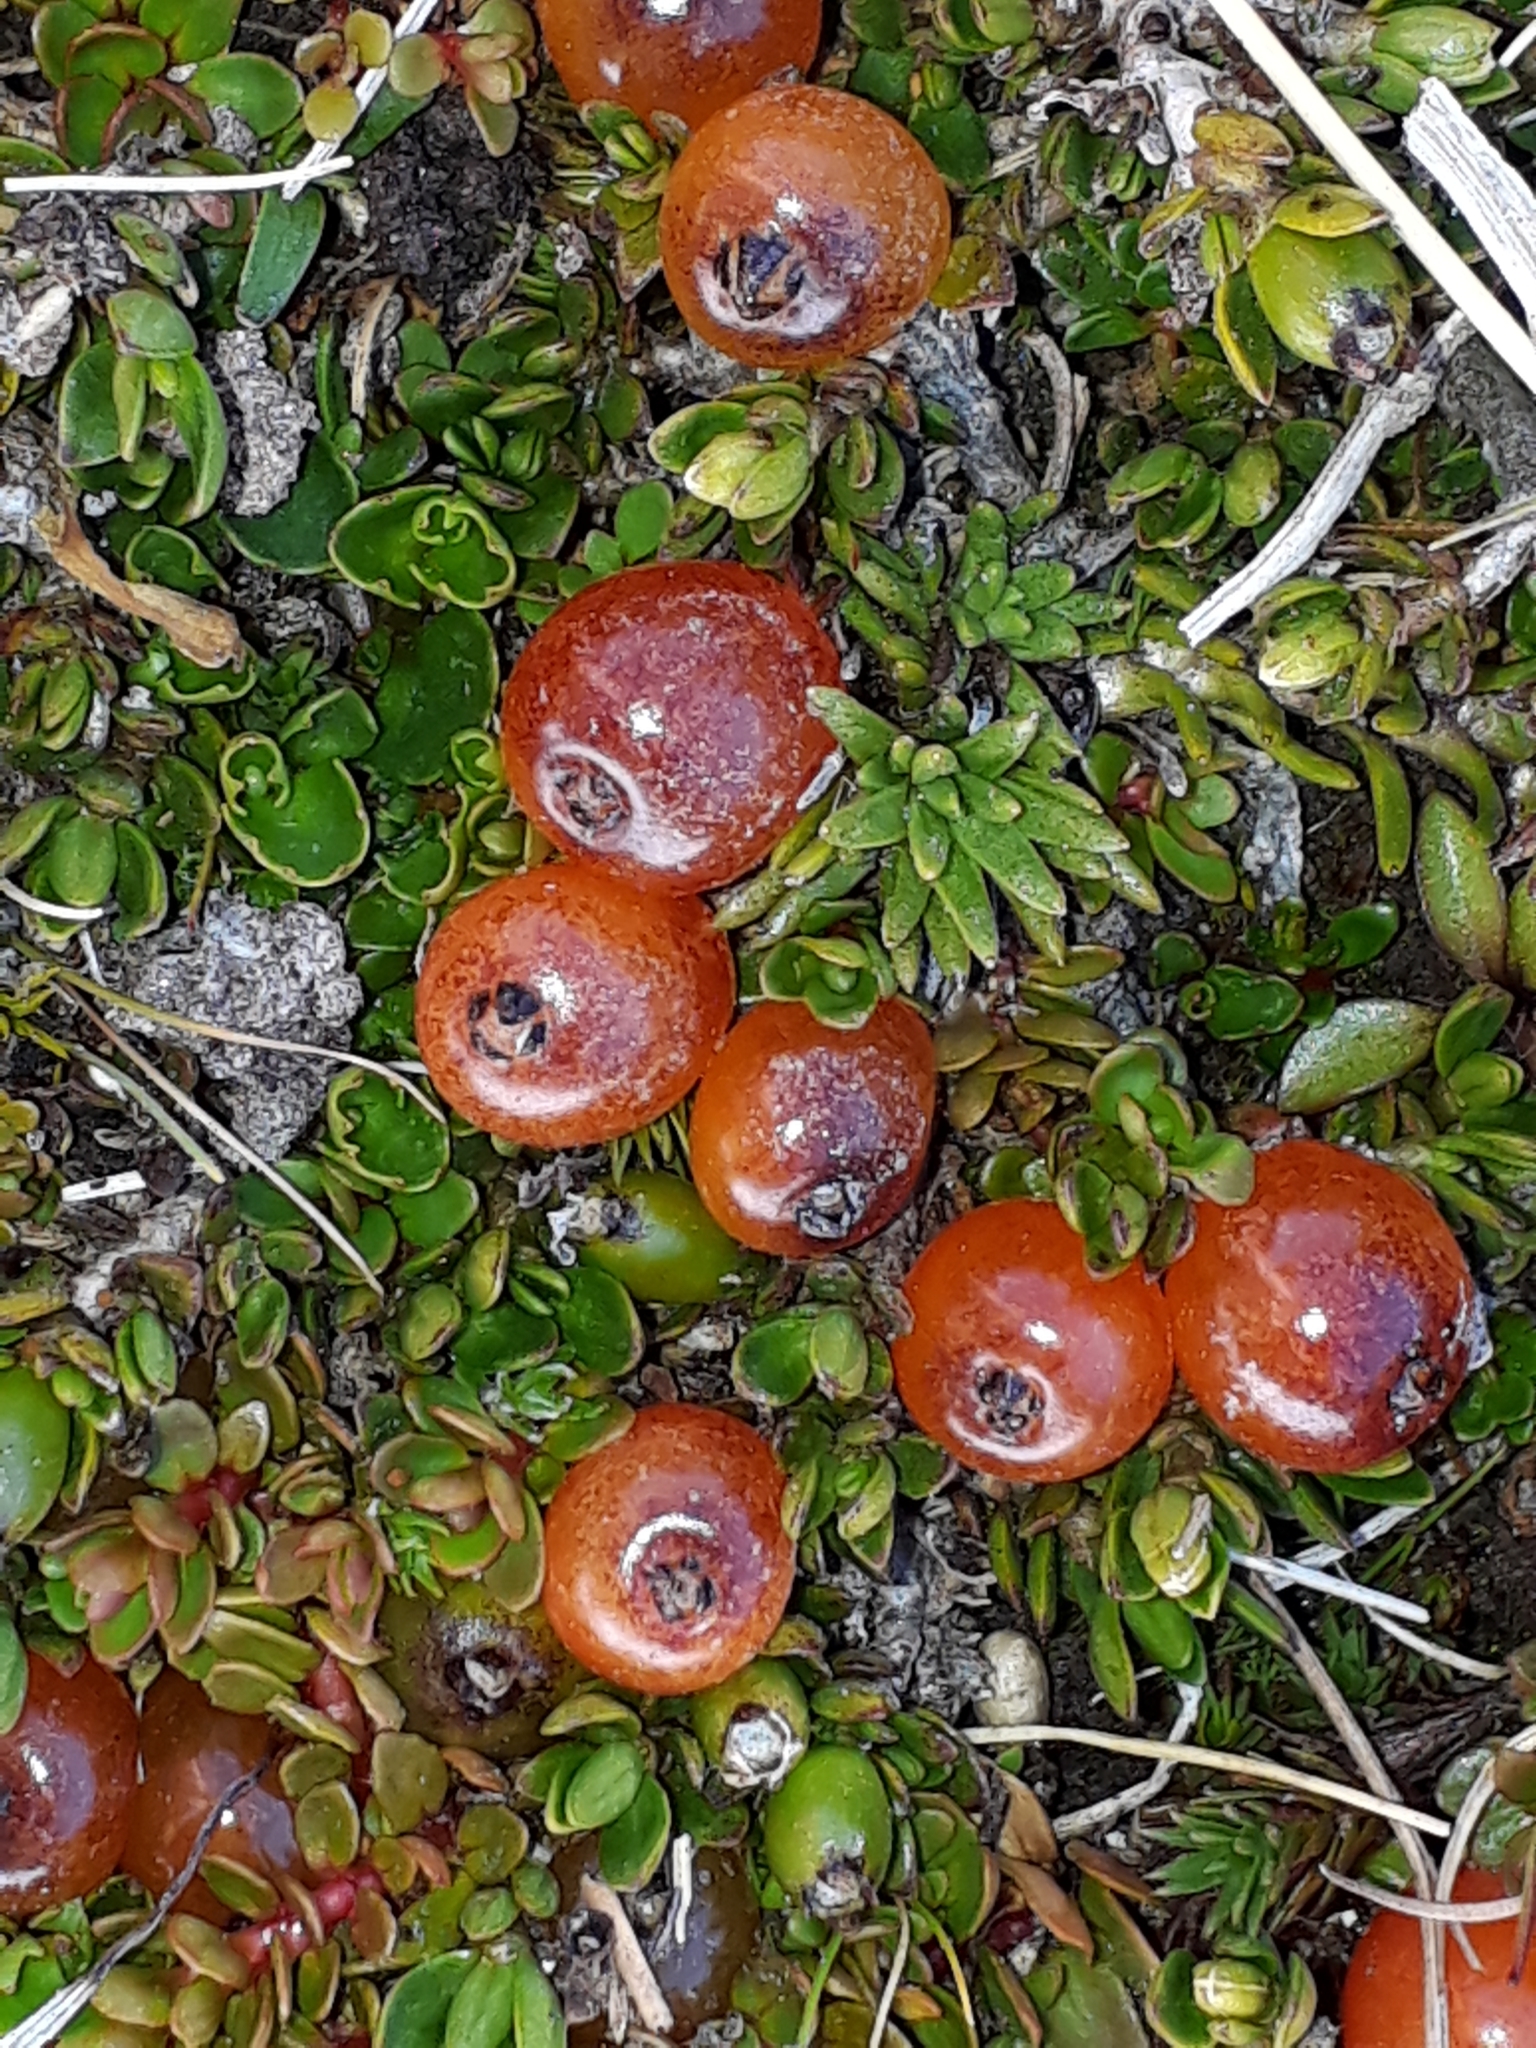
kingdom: Plantae
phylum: Tracheophyta
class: Magnoliopsida
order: Gentianales
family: Rubiaceae
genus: Coprosma
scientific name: Coprosma niphophila
